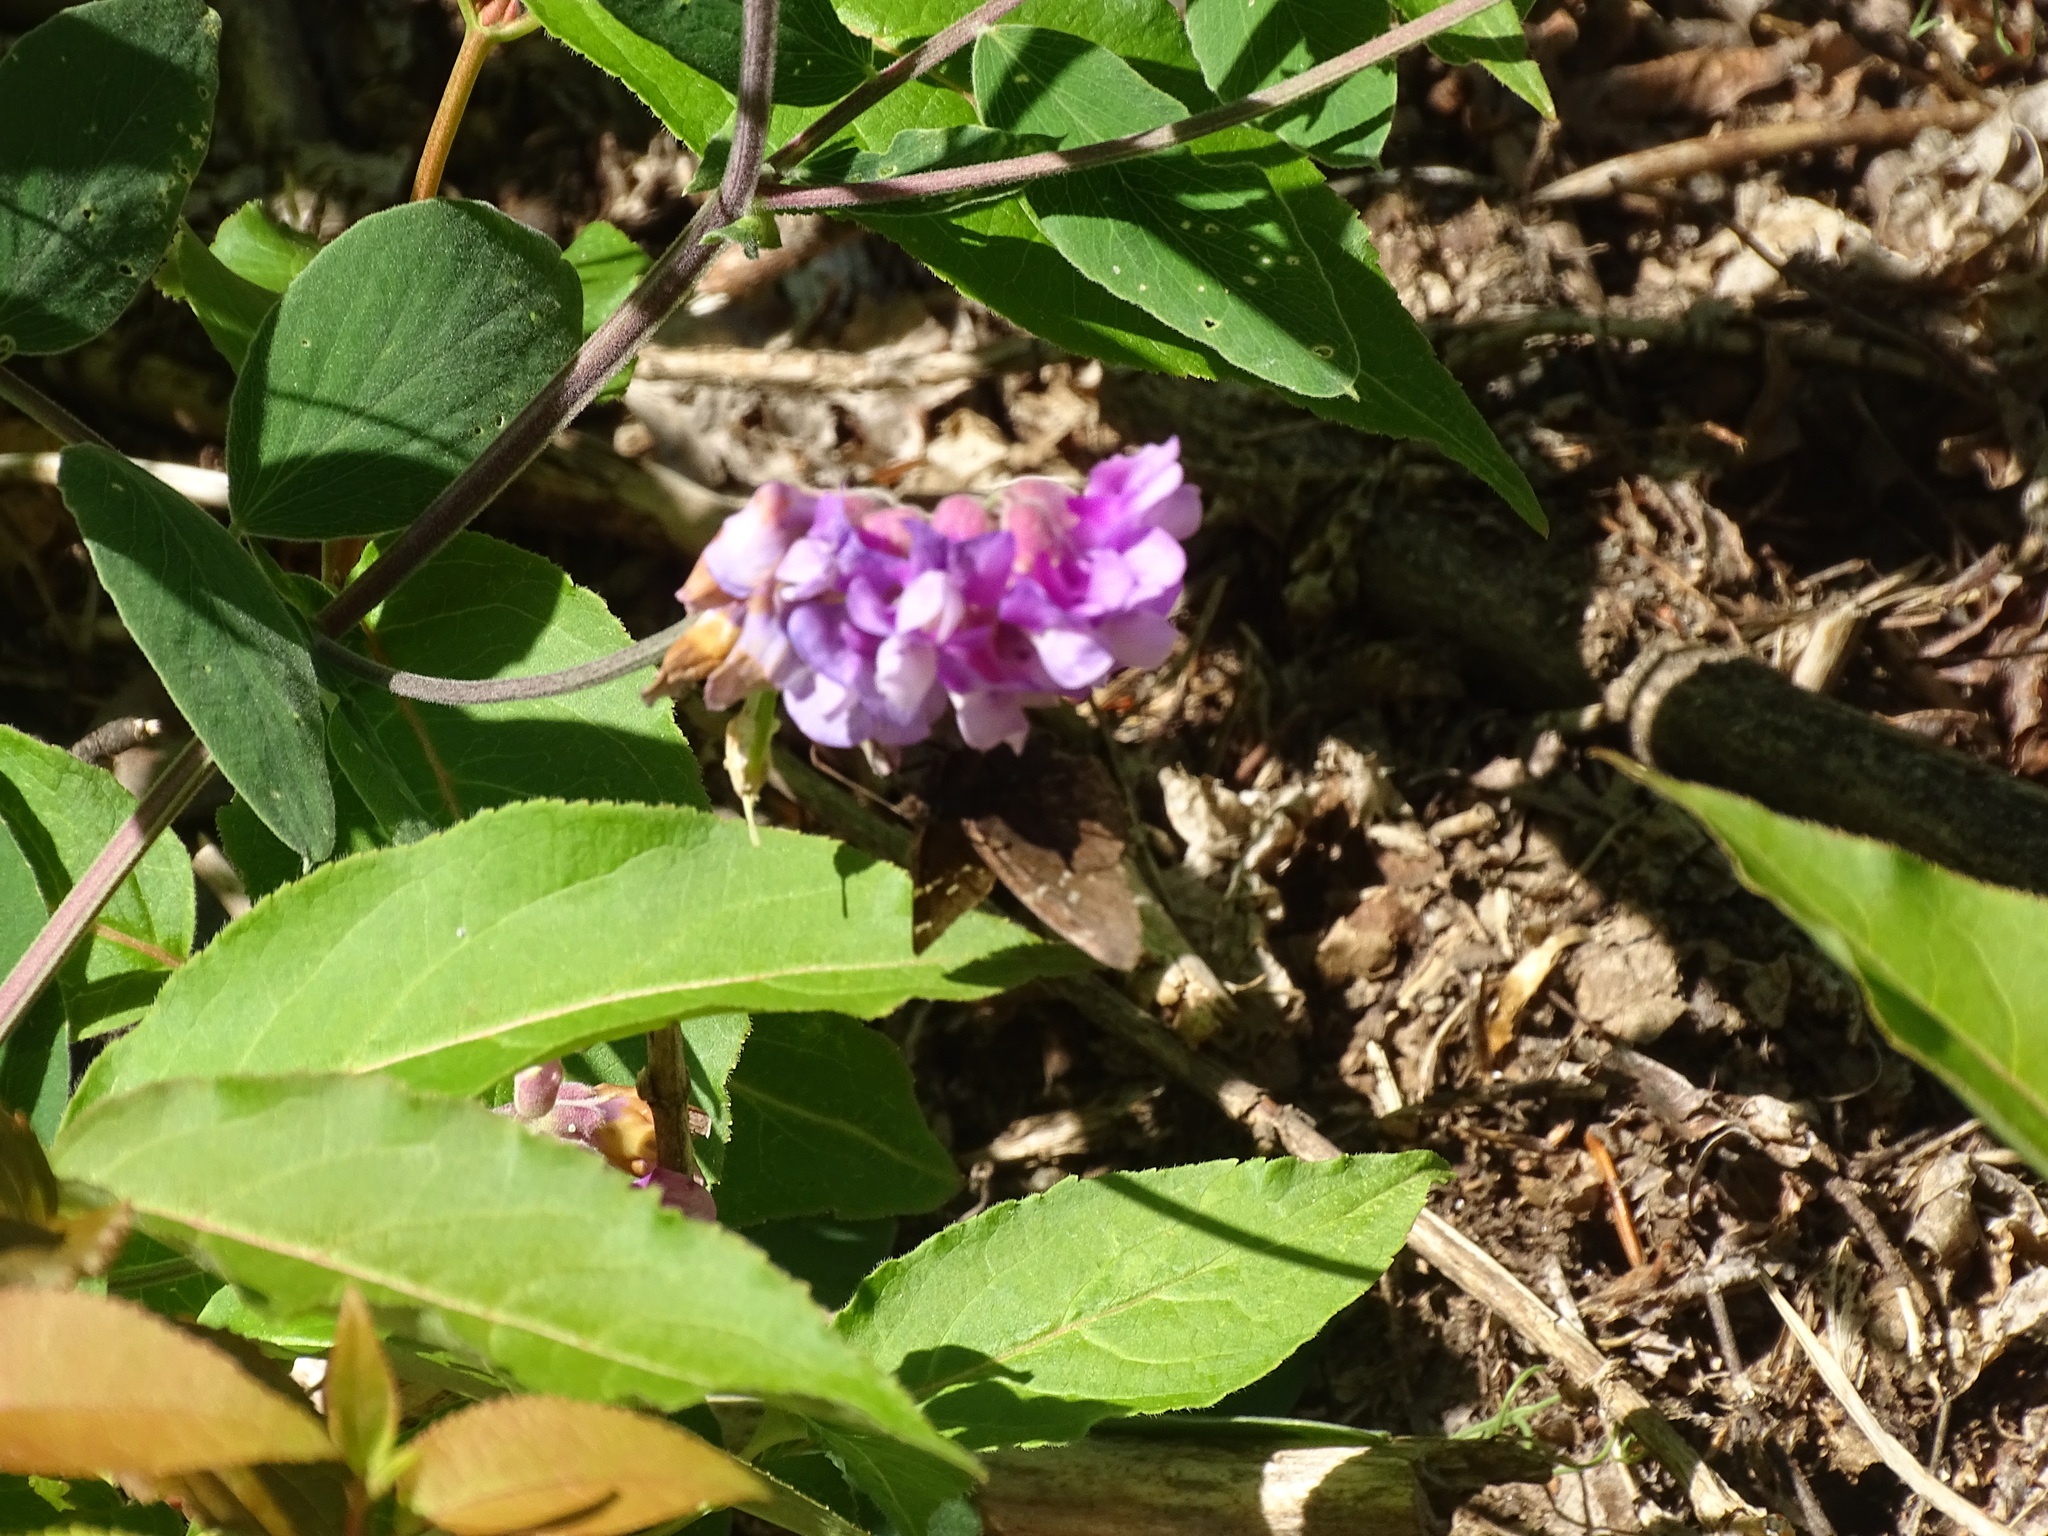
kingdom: Animalia
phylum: Arthropoda
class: Insecta
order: Lepidoptera
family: Hesperiidae
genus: Thorybes
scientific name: Thorybes pylades
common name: Northern cloudywing
